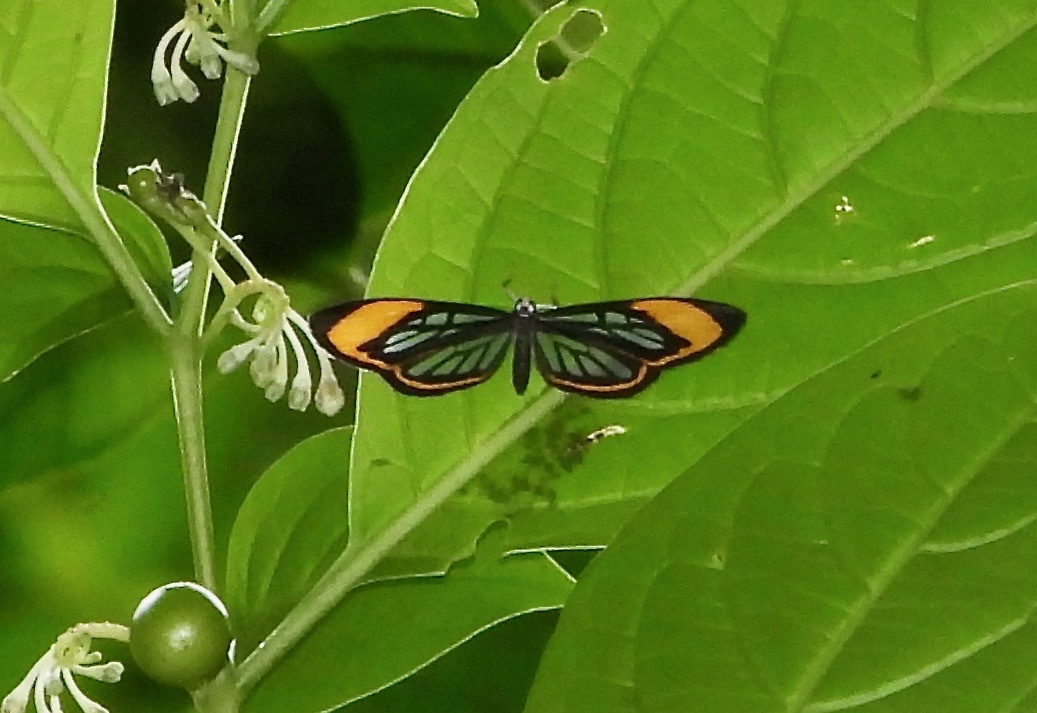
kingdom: Animalia
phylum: Arthropoda
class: Insecta
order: Lepidoptera
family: Riodinidae
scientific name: Riodinidae
